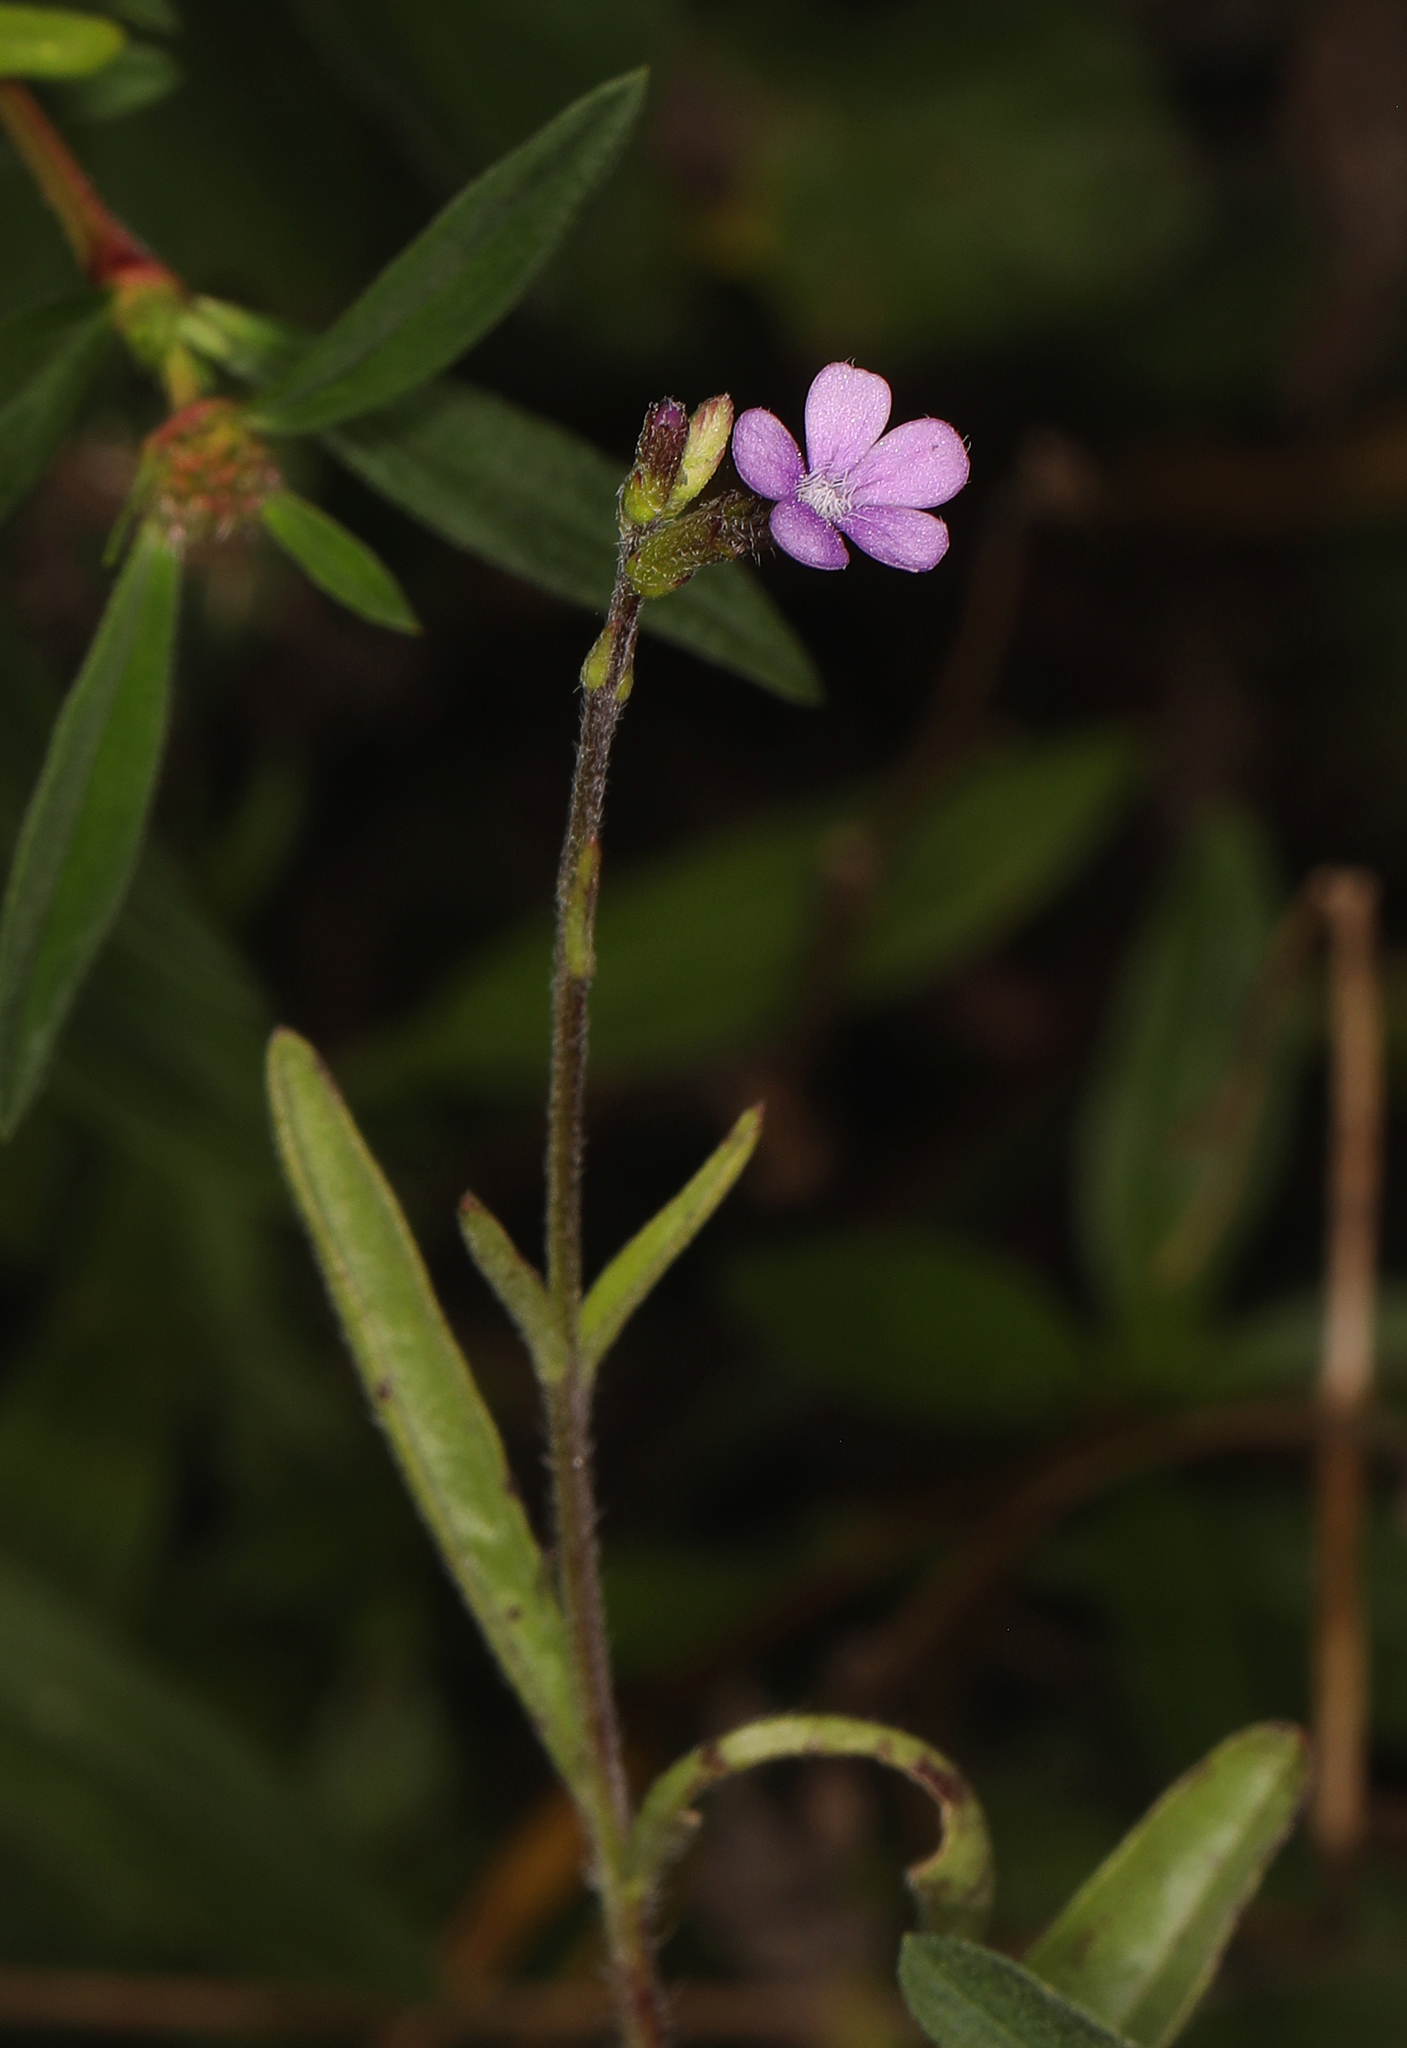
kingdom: Plantae
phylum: Tracheophyta
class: Magnoliopsida
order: Lamiales
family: Orobanchaceae
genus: Buchnera
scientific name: Buchnera floridana
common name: Florida bluehearts
